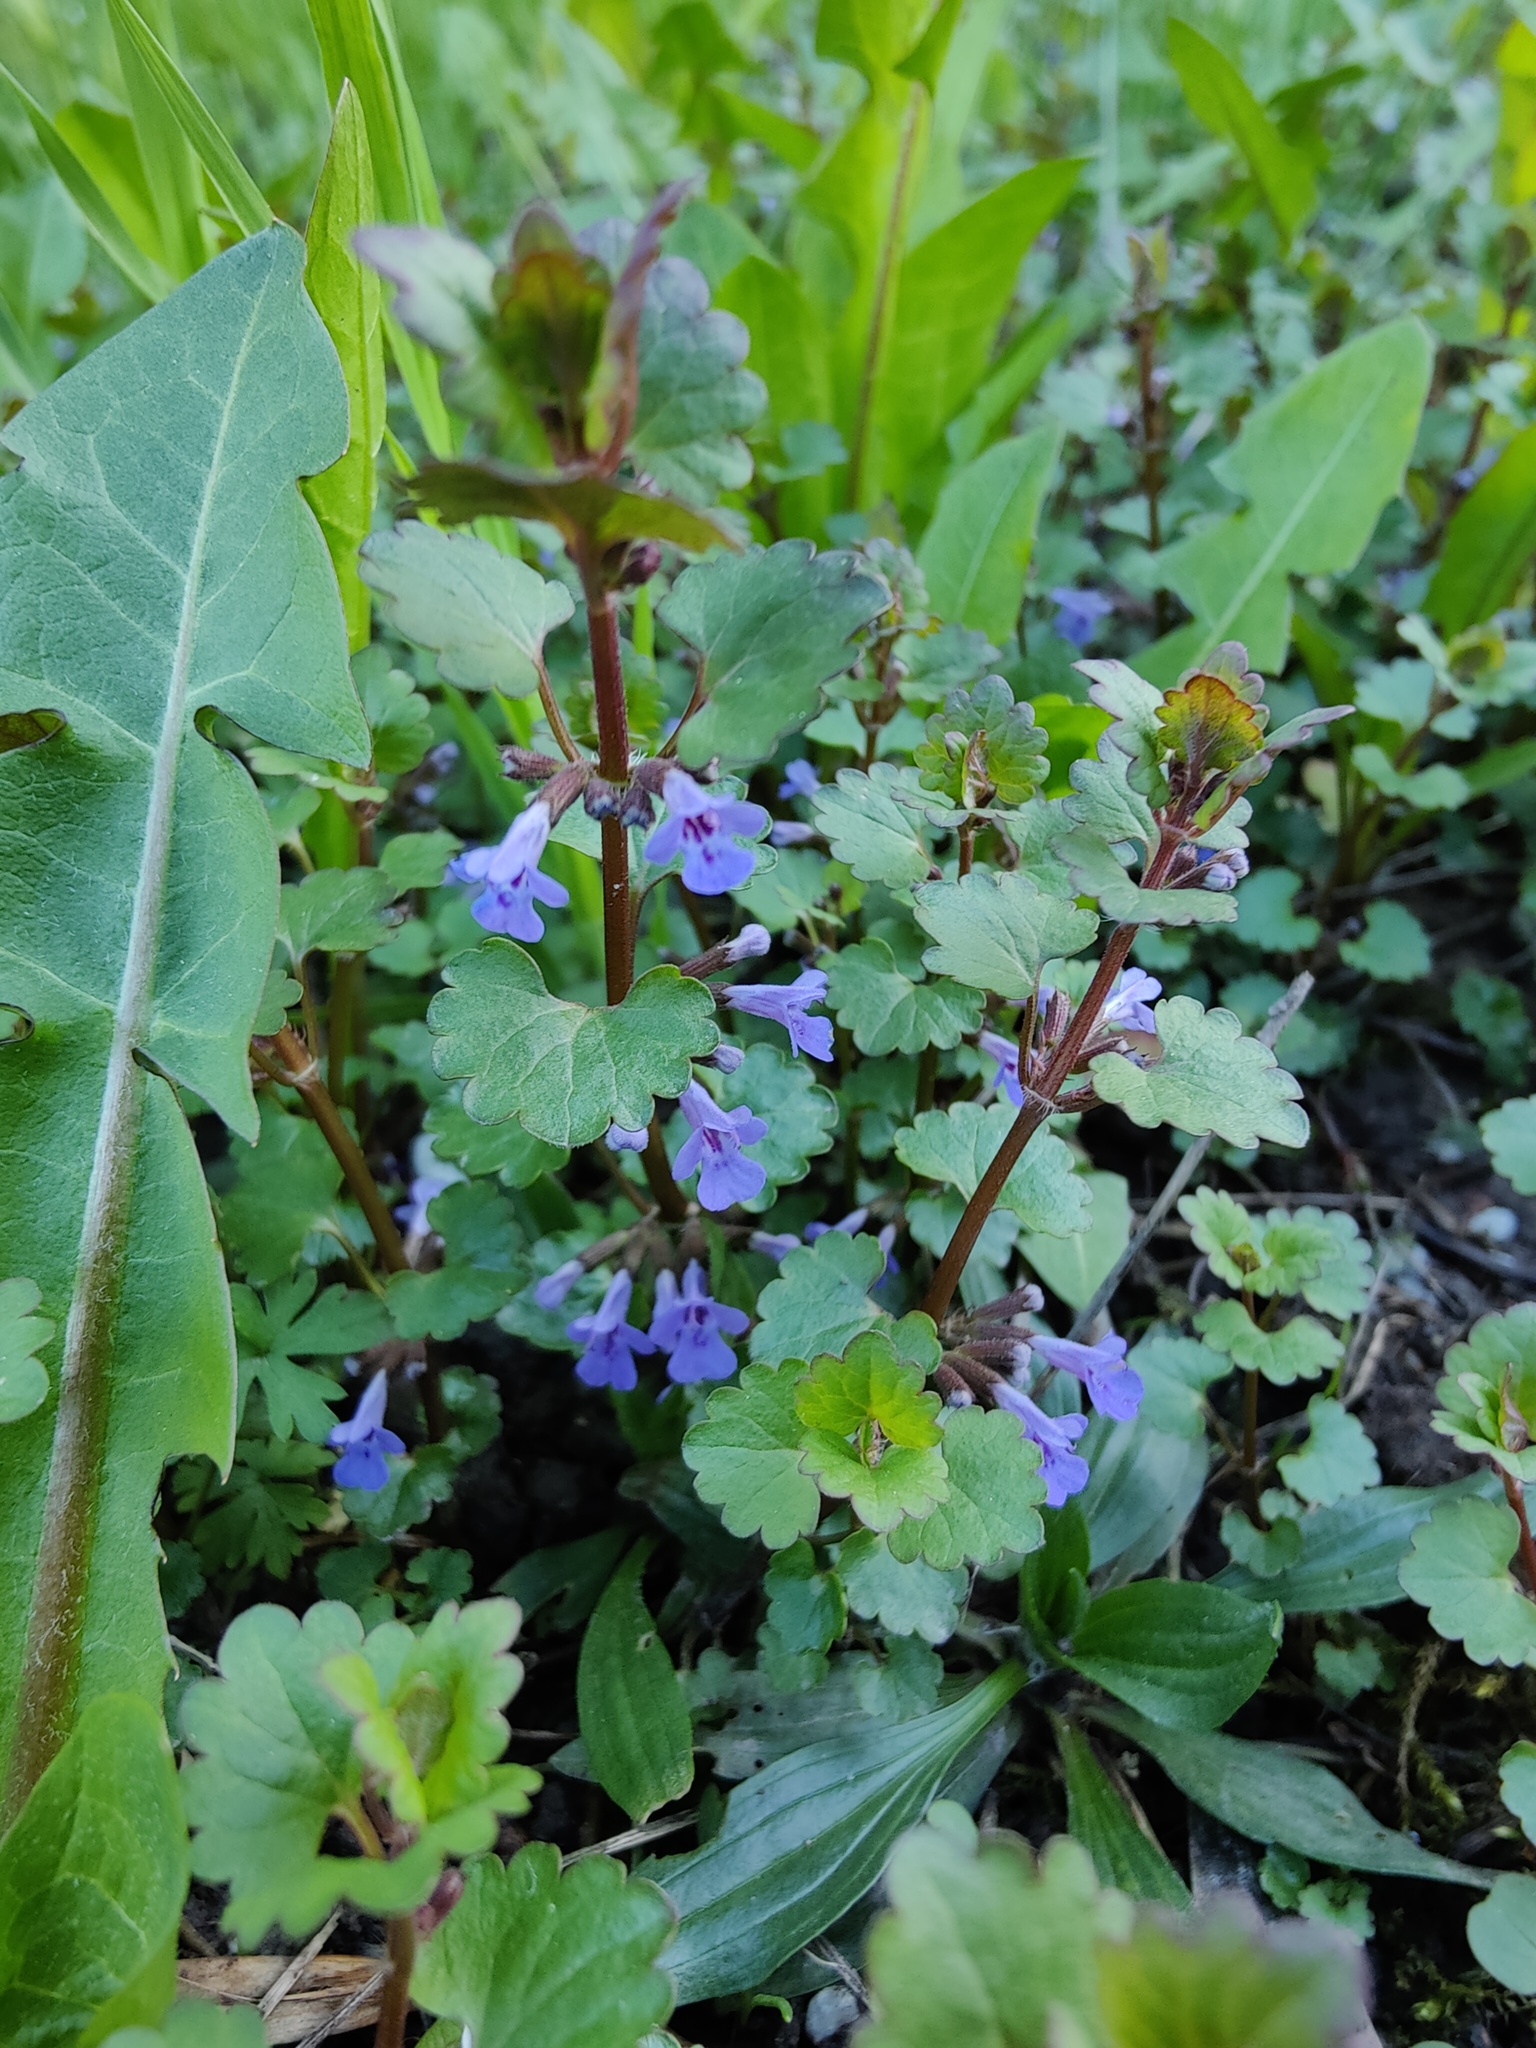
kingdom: Plantae
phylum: Tracheophyta
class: Magnoliopsida
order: Lamiales
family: Lamiaceae
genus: Glechoma
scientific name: Glechoma hederacea
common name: Ground ivy
